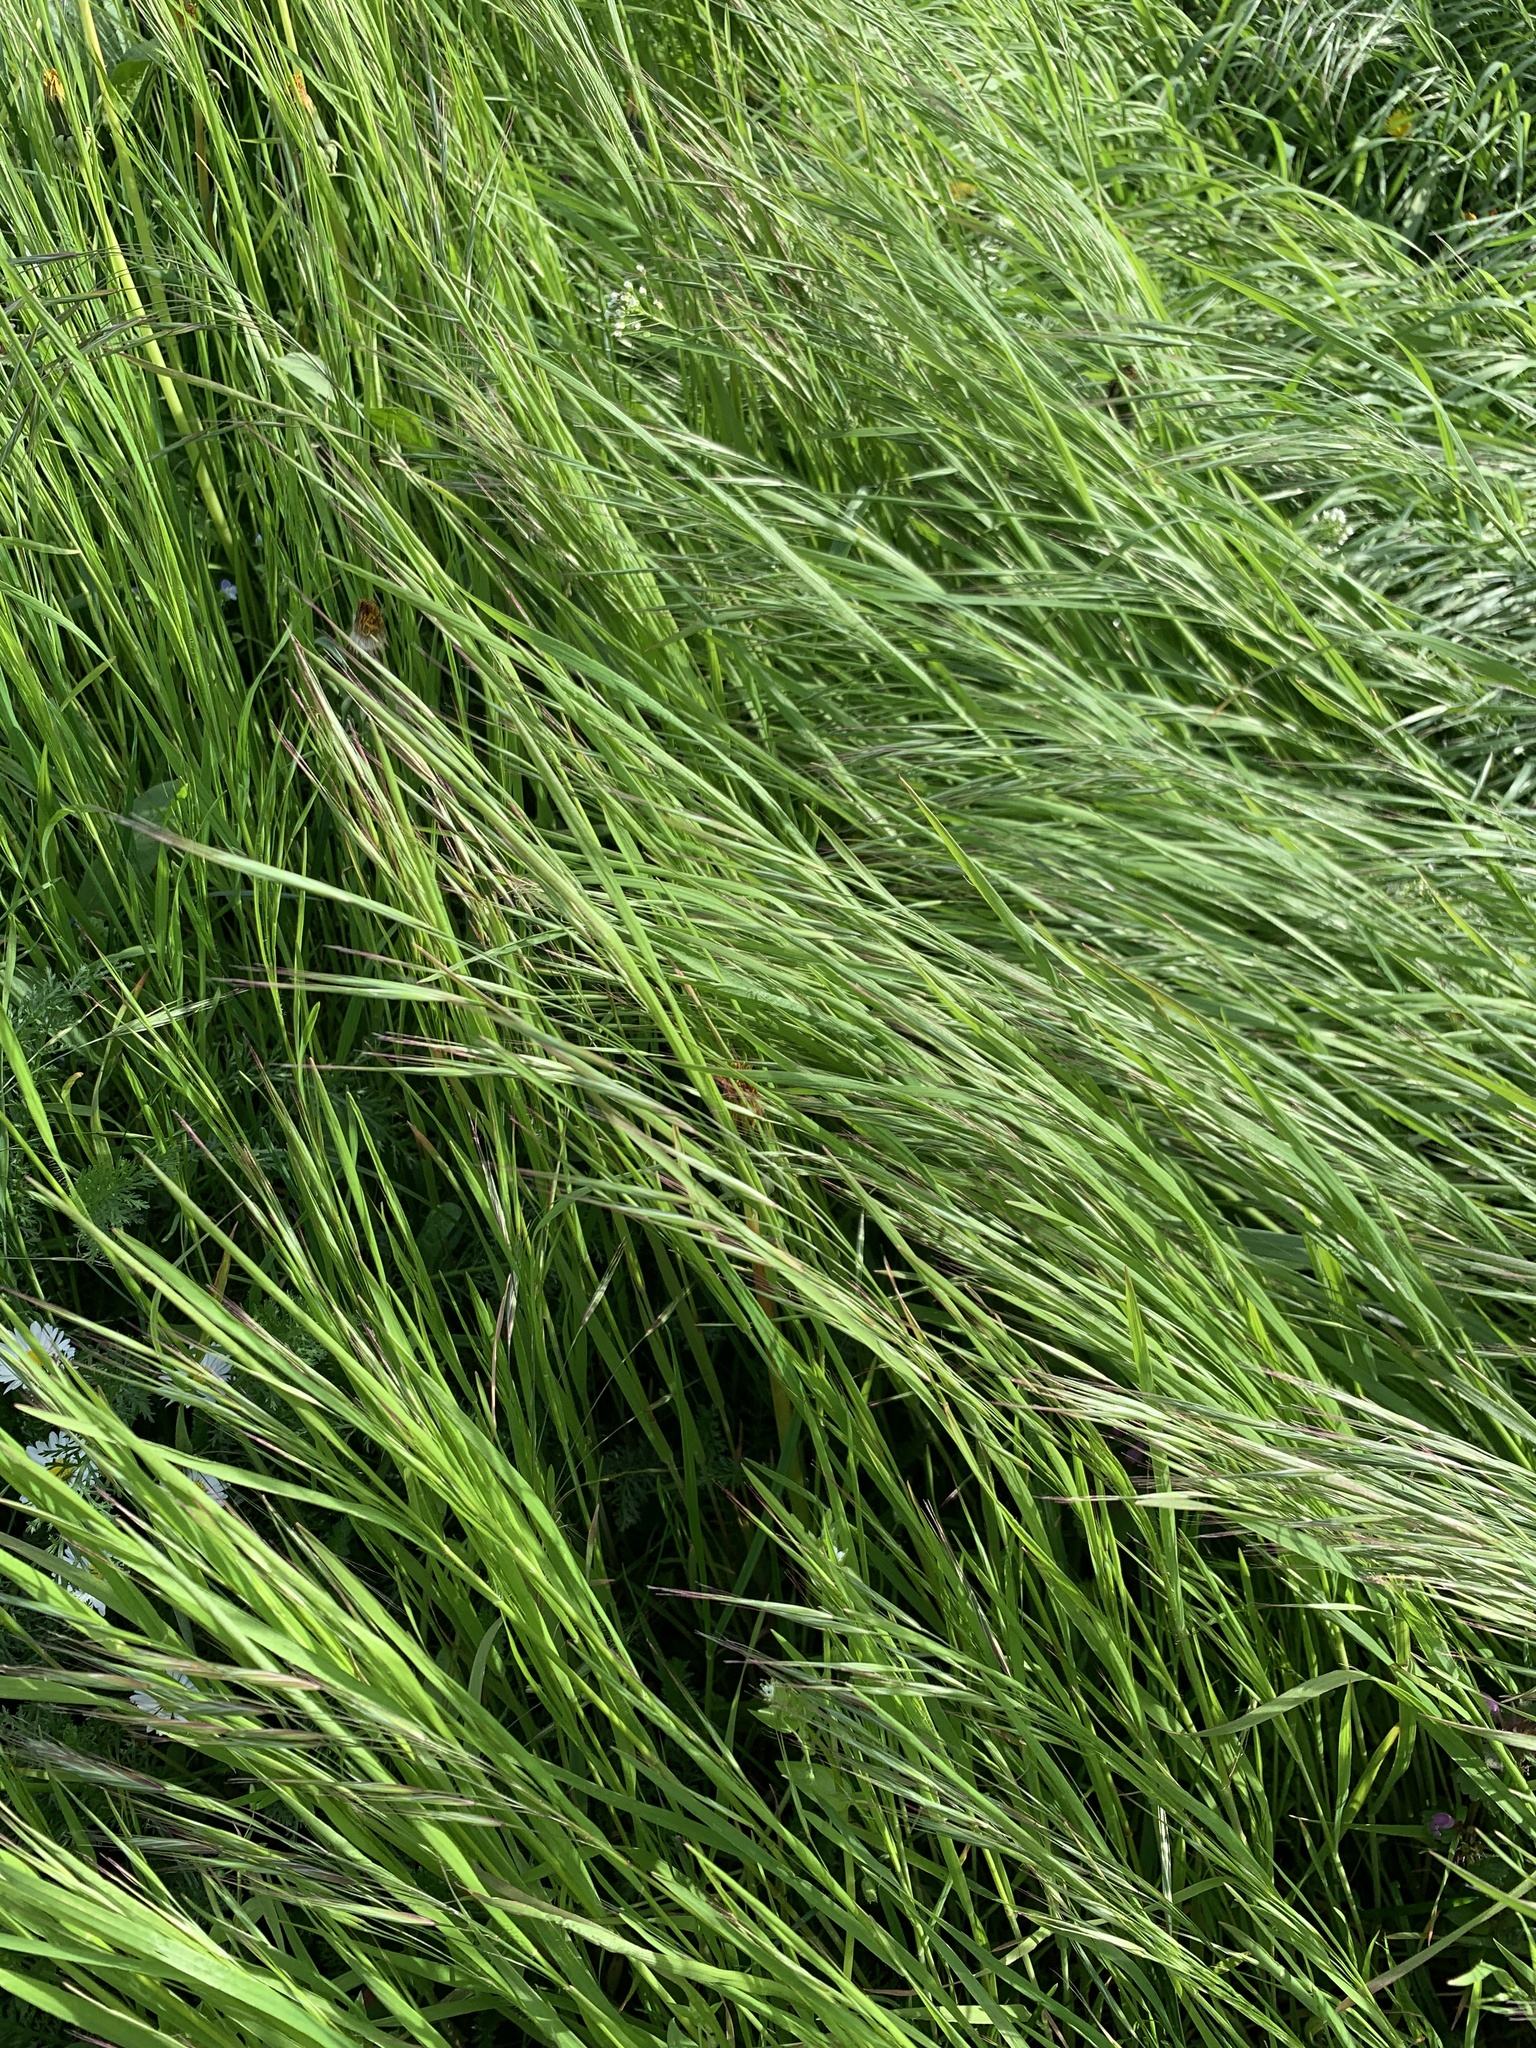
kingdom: Plantae
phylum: Tracheophyta
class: Liliopsida
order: Poales
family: Poaceae
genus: Bromus
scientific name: Bromus sterilis
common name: Poverty brome
